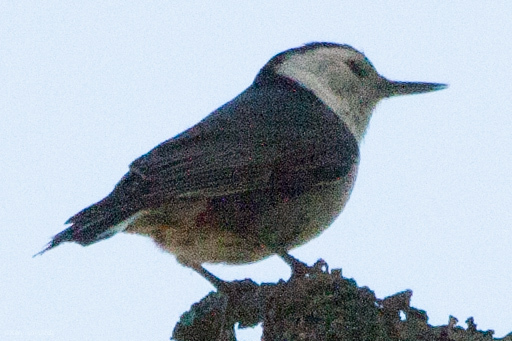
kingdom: Animalia
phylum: Chordata
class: Aves
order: Passeriformes
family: Sittidae
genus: Sitta
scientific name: Sitta carolinensis
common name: White-breasted nuthatch
